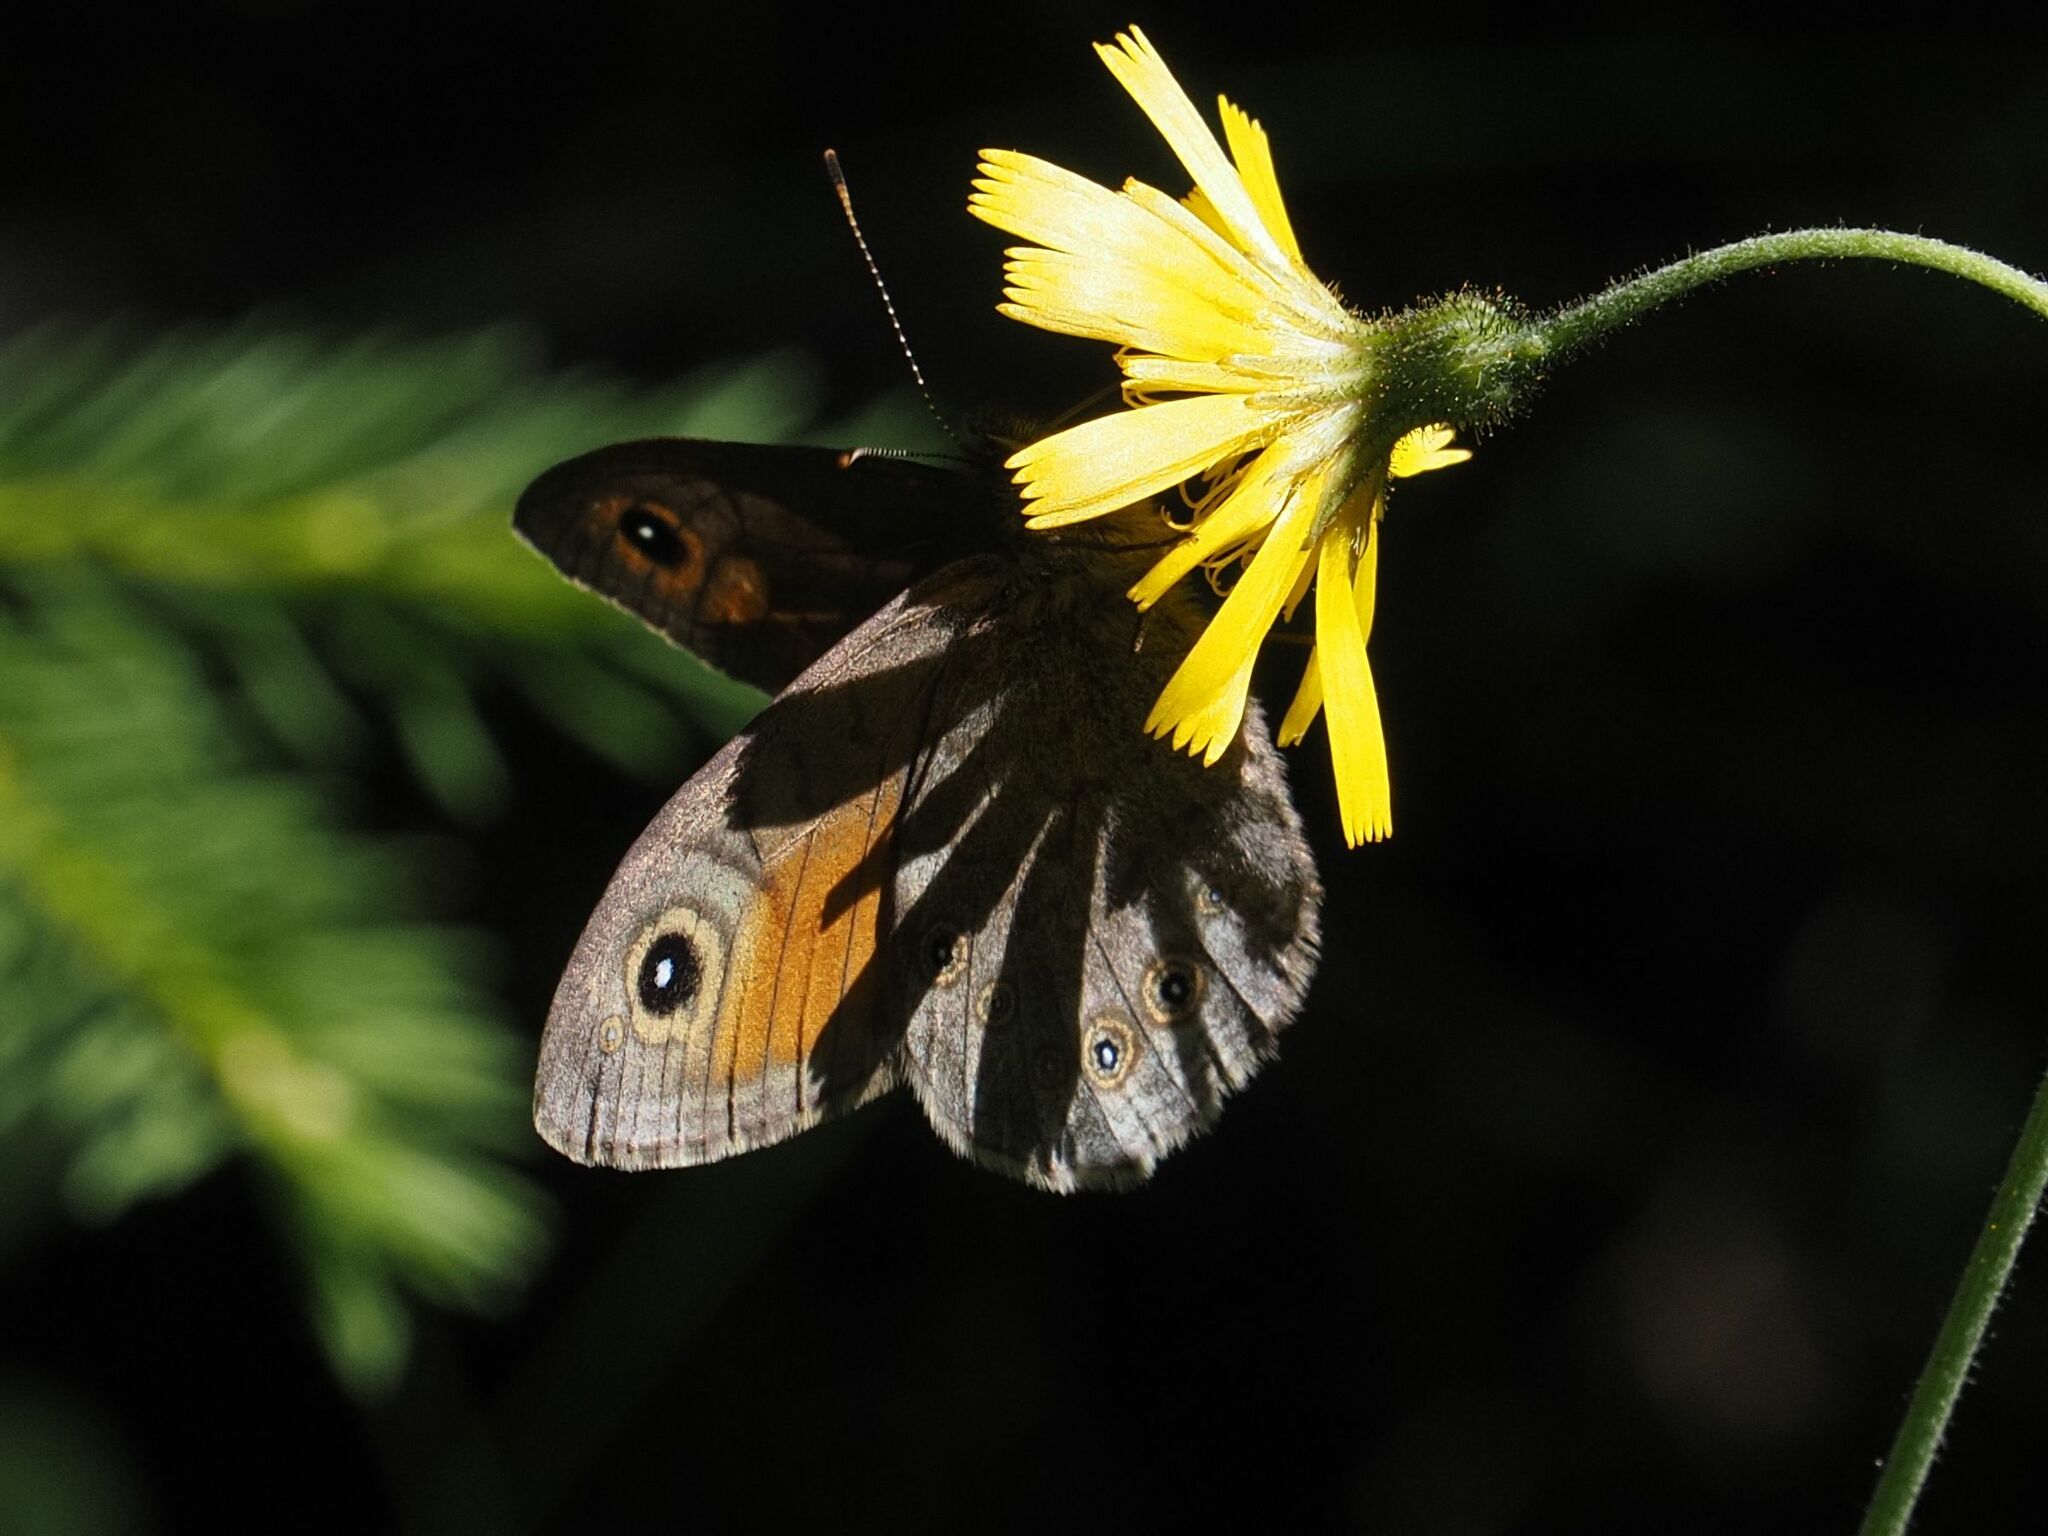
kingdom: Animalia
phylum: Arthropoda
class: Insecta
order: Lepidoptera
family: Nymphalidae
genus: Pararge
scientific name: Pararge Lasiommata maera
